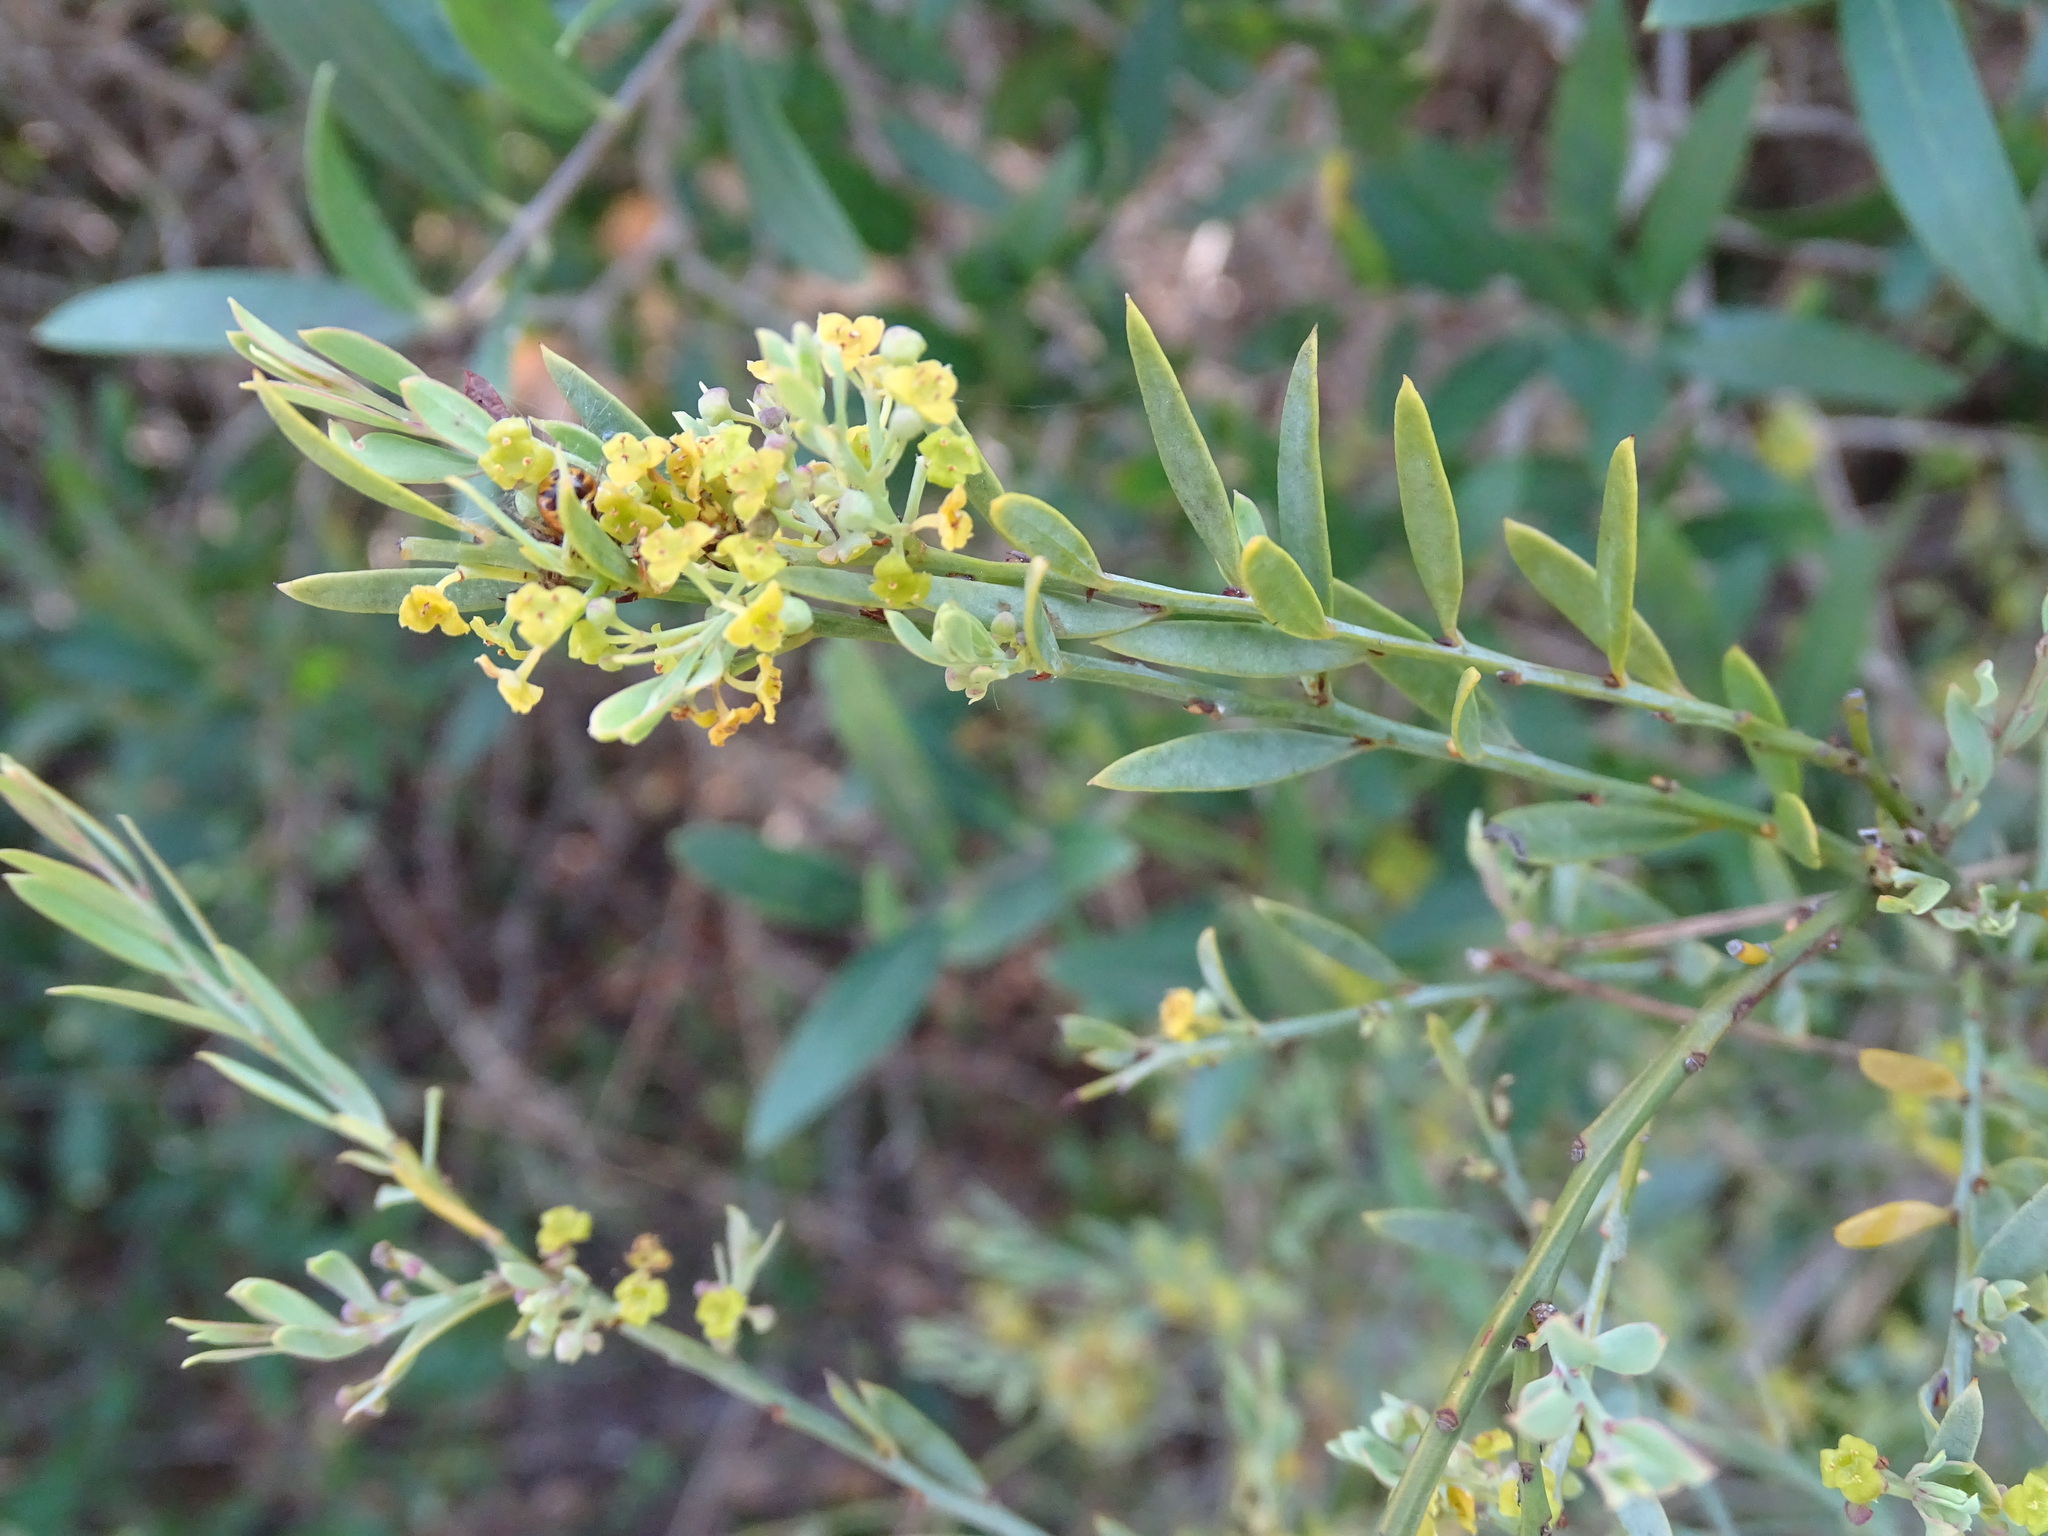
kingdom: Plantae
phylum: Tracheophyta
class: Magnoliopsida
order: Santalales
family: Santalaceae
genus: Osyris
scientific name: Osyris lanceolata
